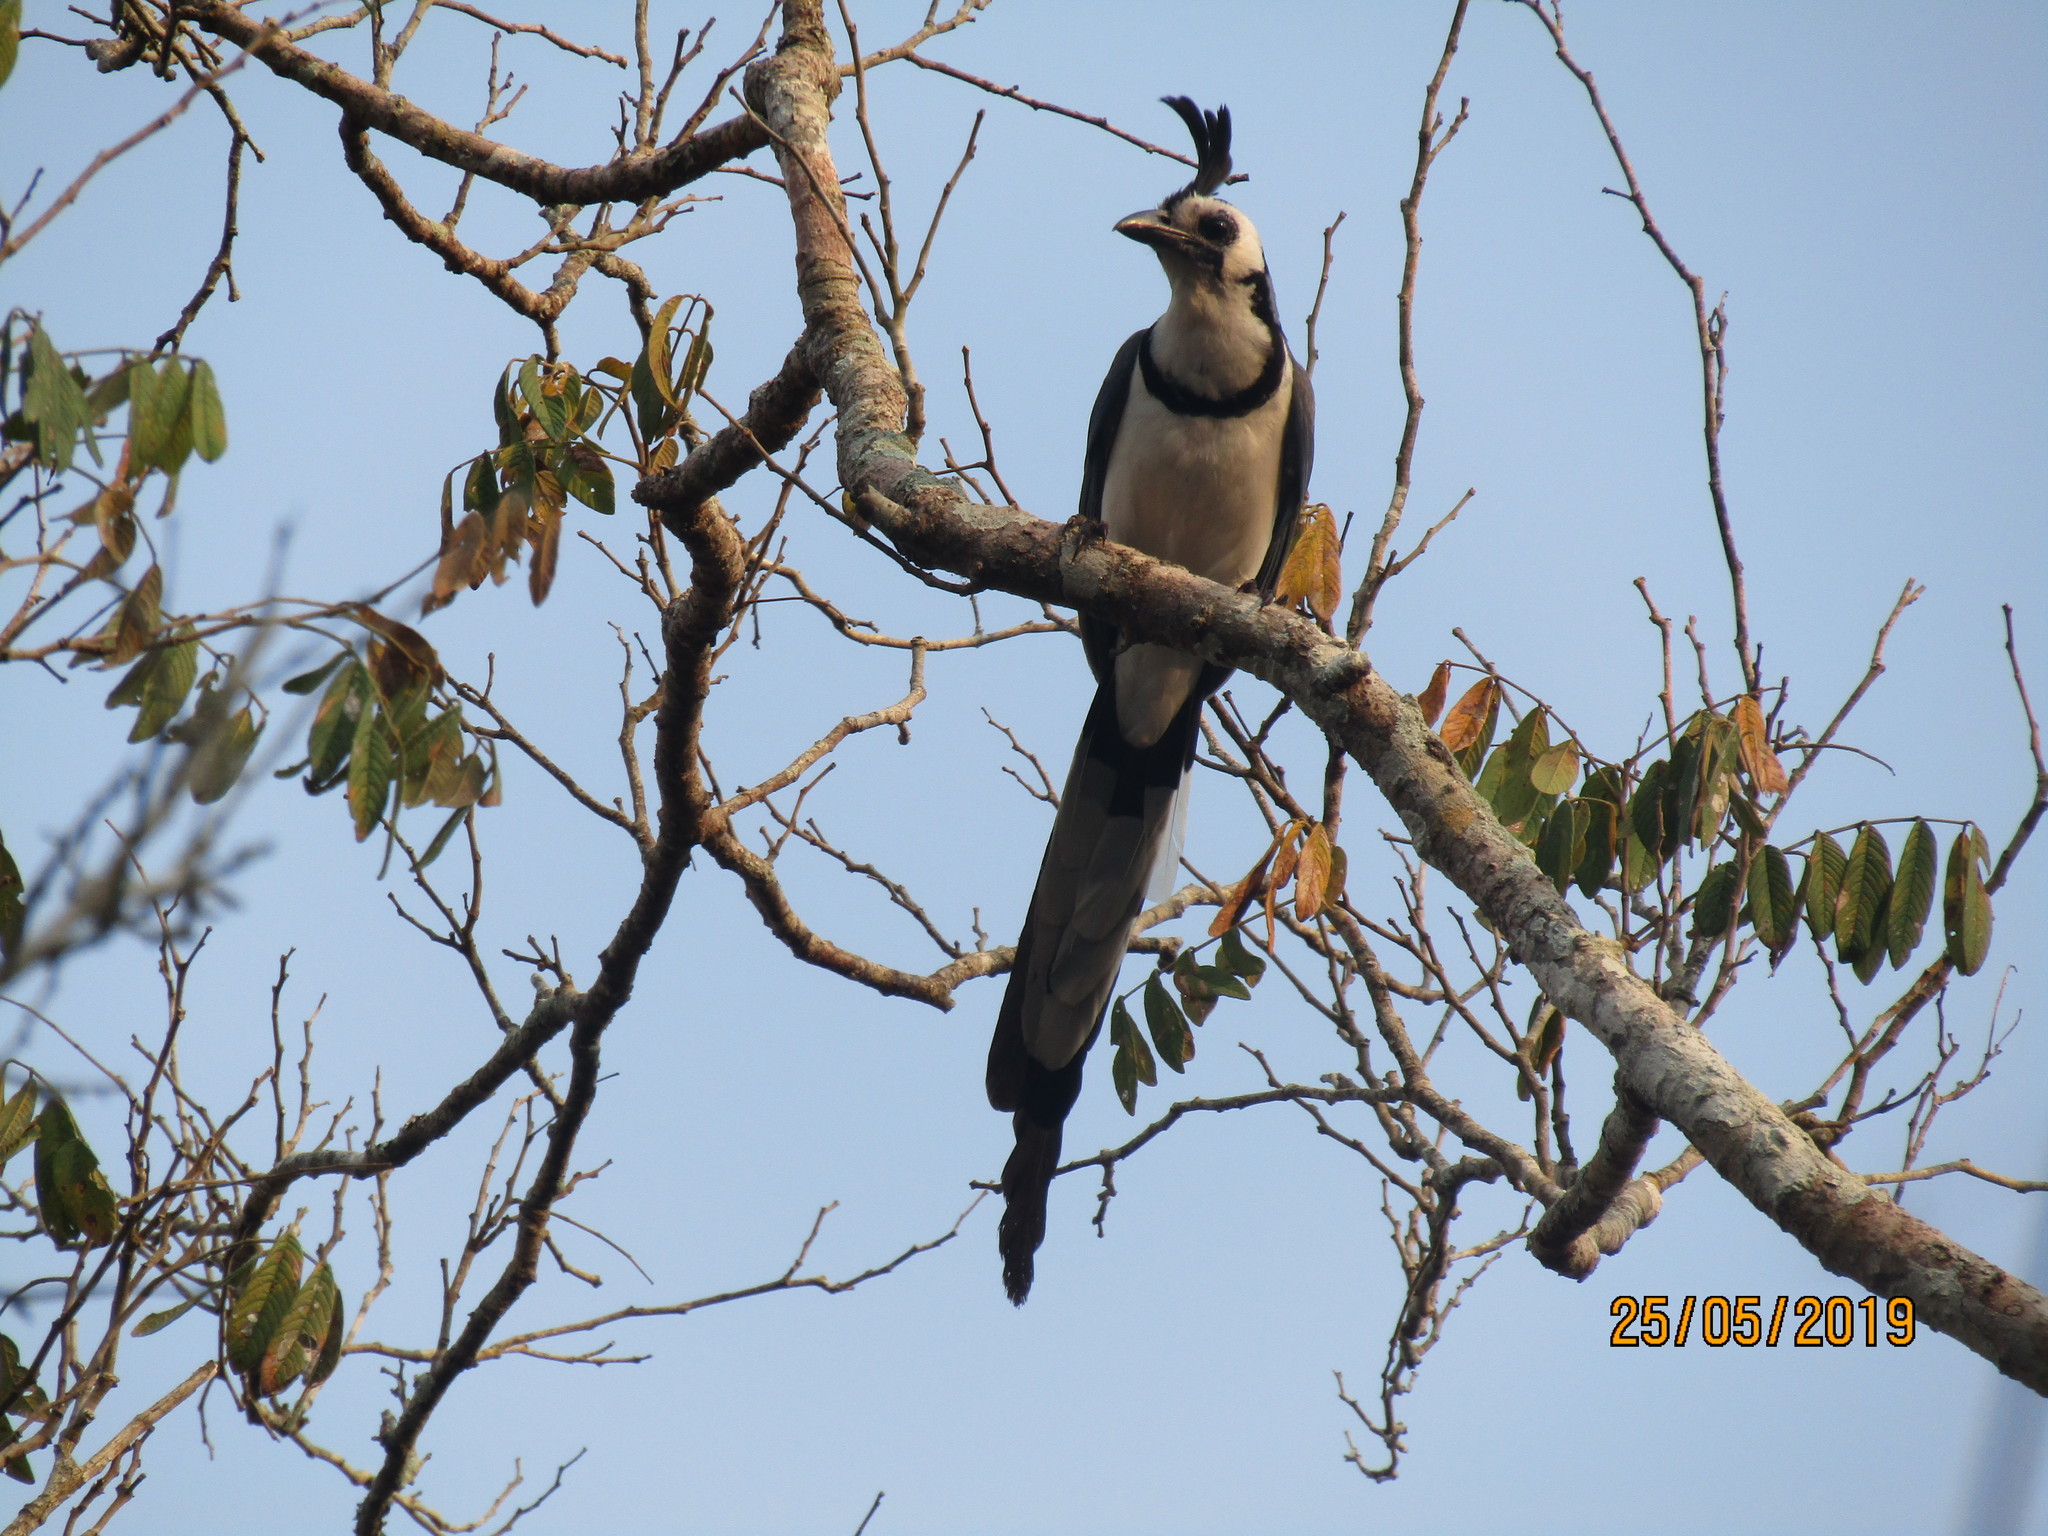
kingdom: Animalia
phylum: Chordata
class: Aves
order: Passeriformes
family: Corvidae
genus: Calocitta
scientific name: Calocitta formosa
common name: White-throated magpie-jay
